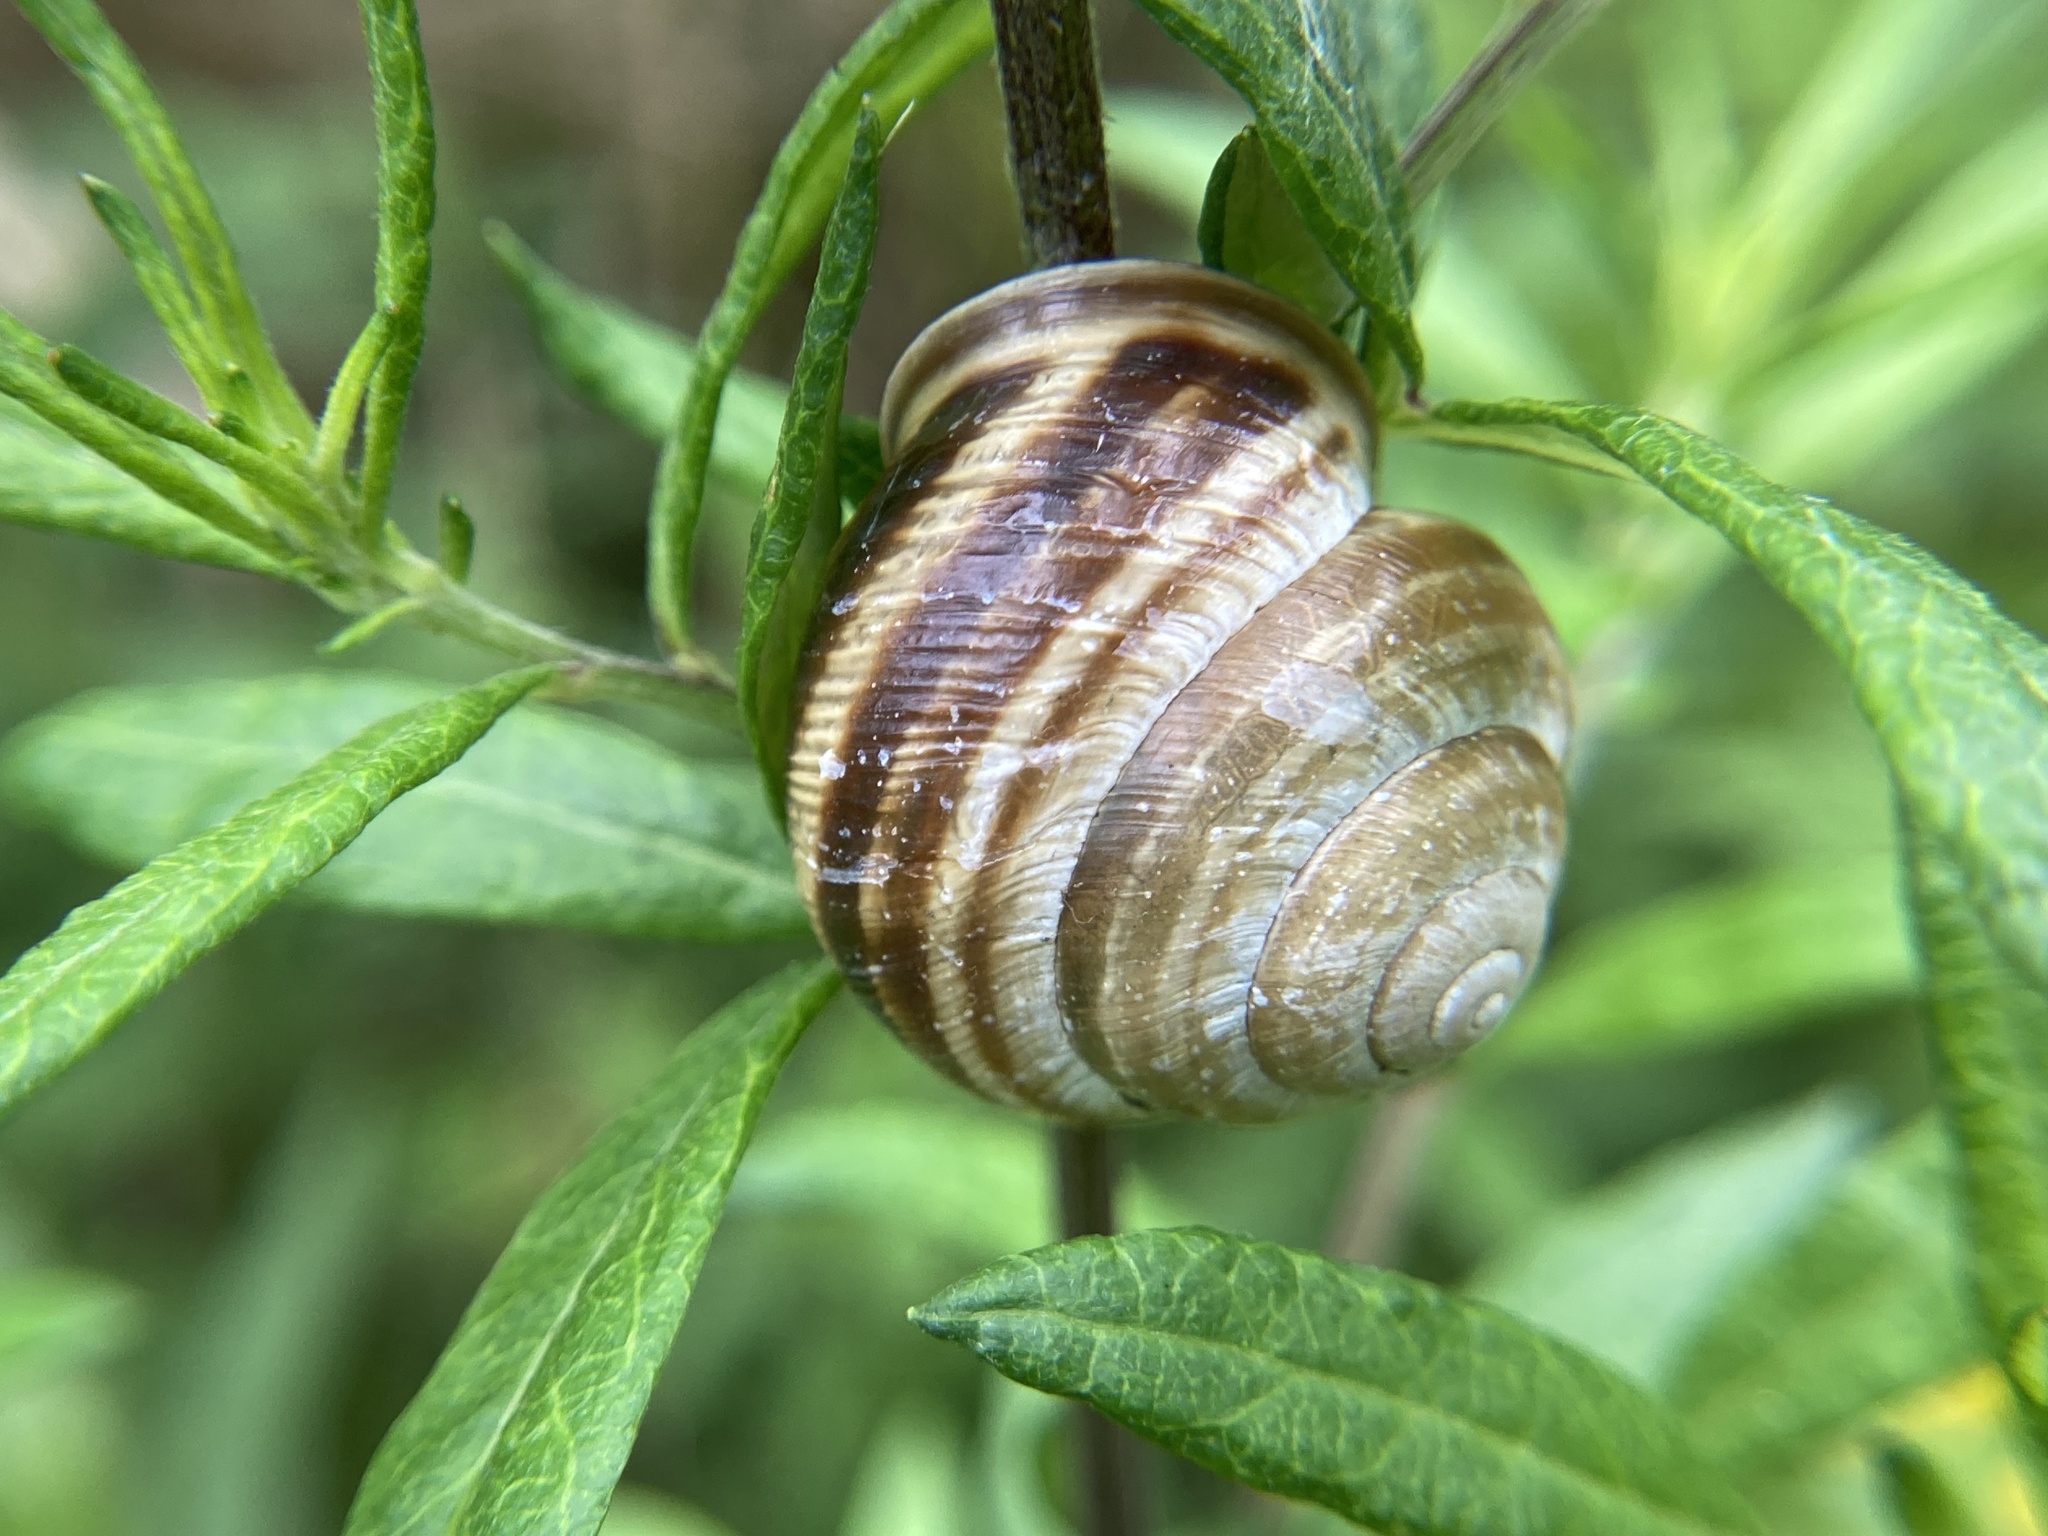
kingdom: Animalia
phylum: Mollusca
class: Gastropoda
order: Stylommatophora
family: Helicidae
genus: Caucasotachea
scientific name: Caucasotachea vindobonensis
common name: European helicid land snail
